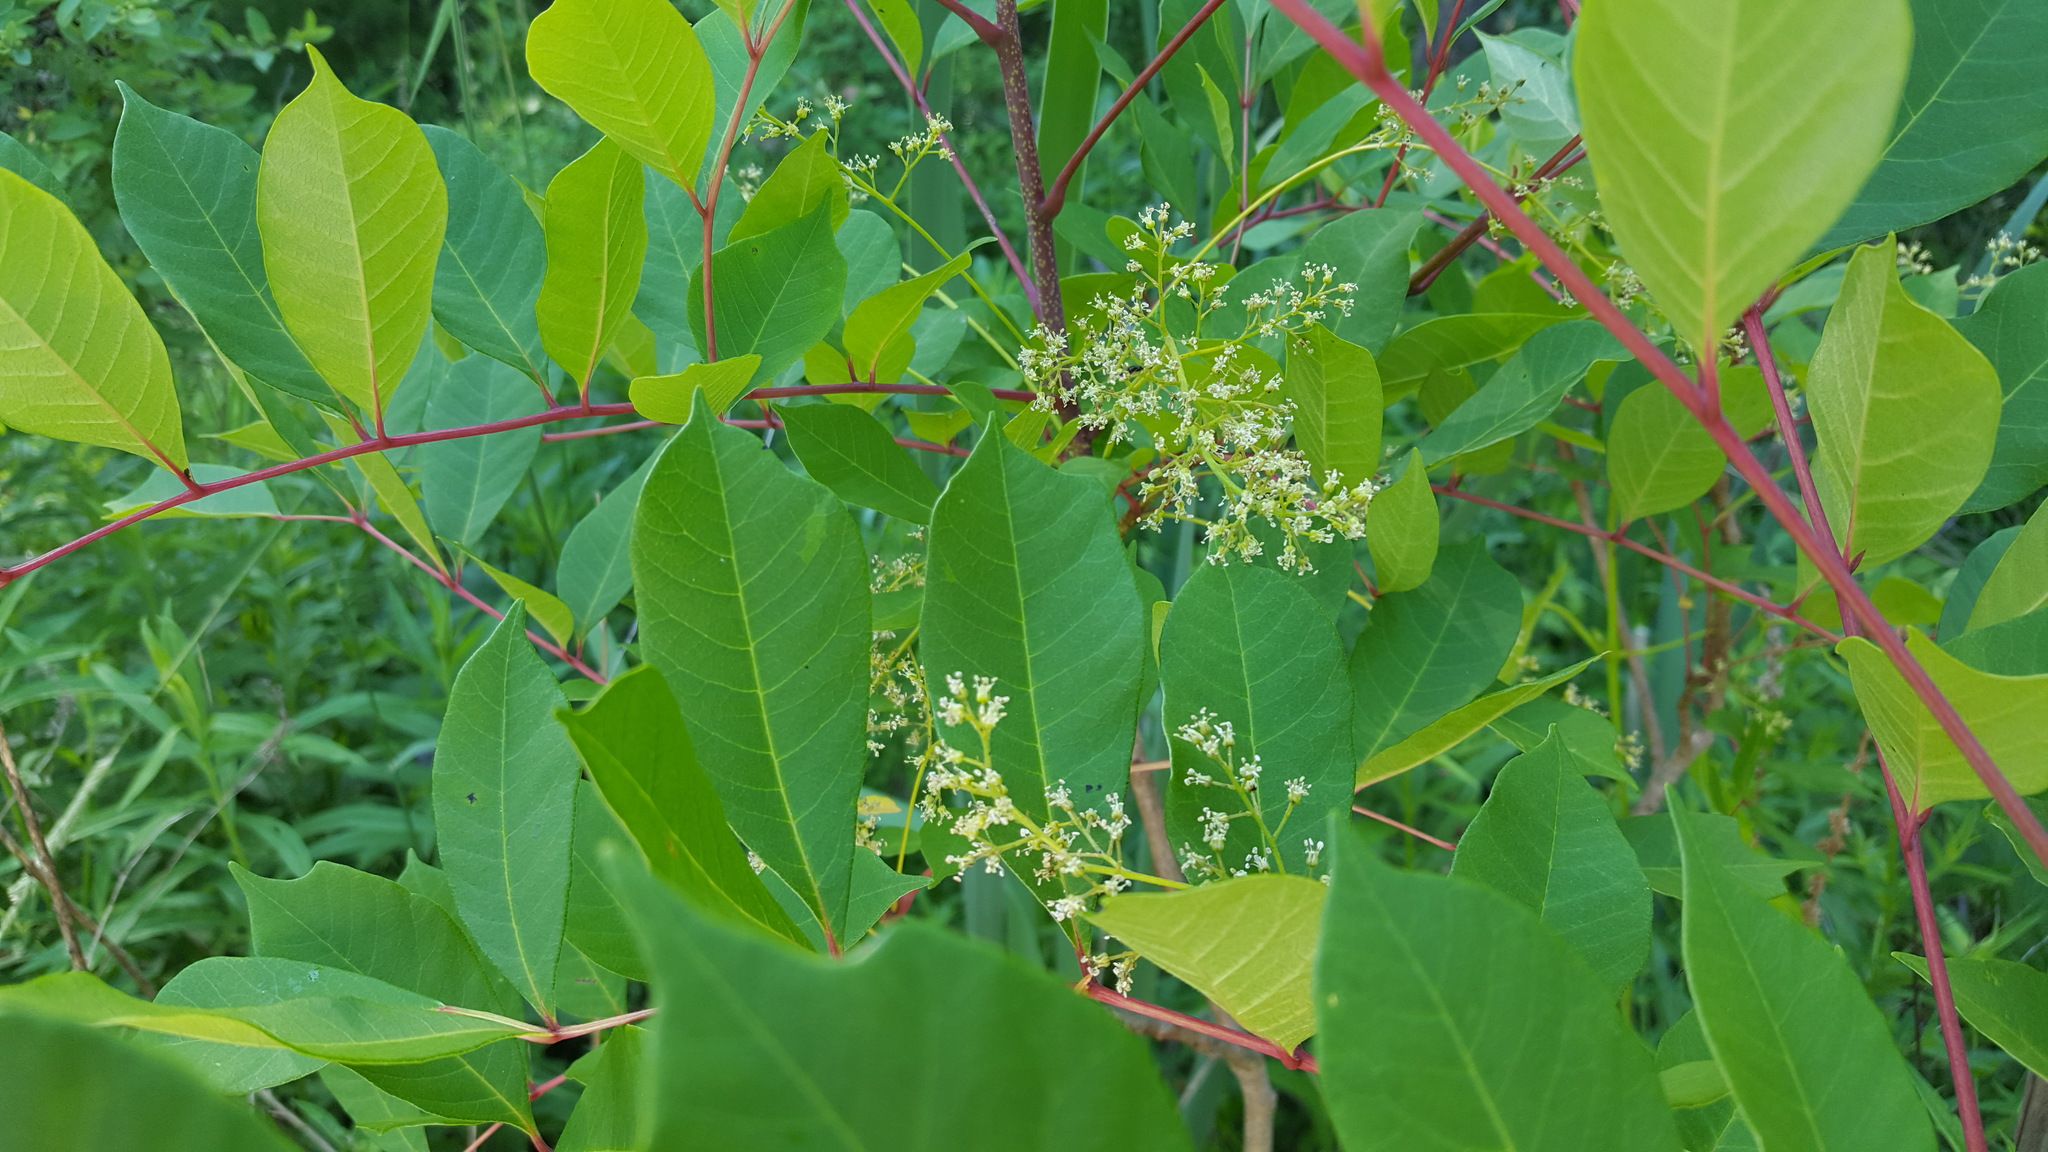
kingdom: Plantae
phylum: Tracheophyta
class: Magnoliopsida
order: Sapindales
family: Anacardiaceae
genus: Toxicodendron
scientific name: Toxicodendron vernix
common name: Poison sumac
